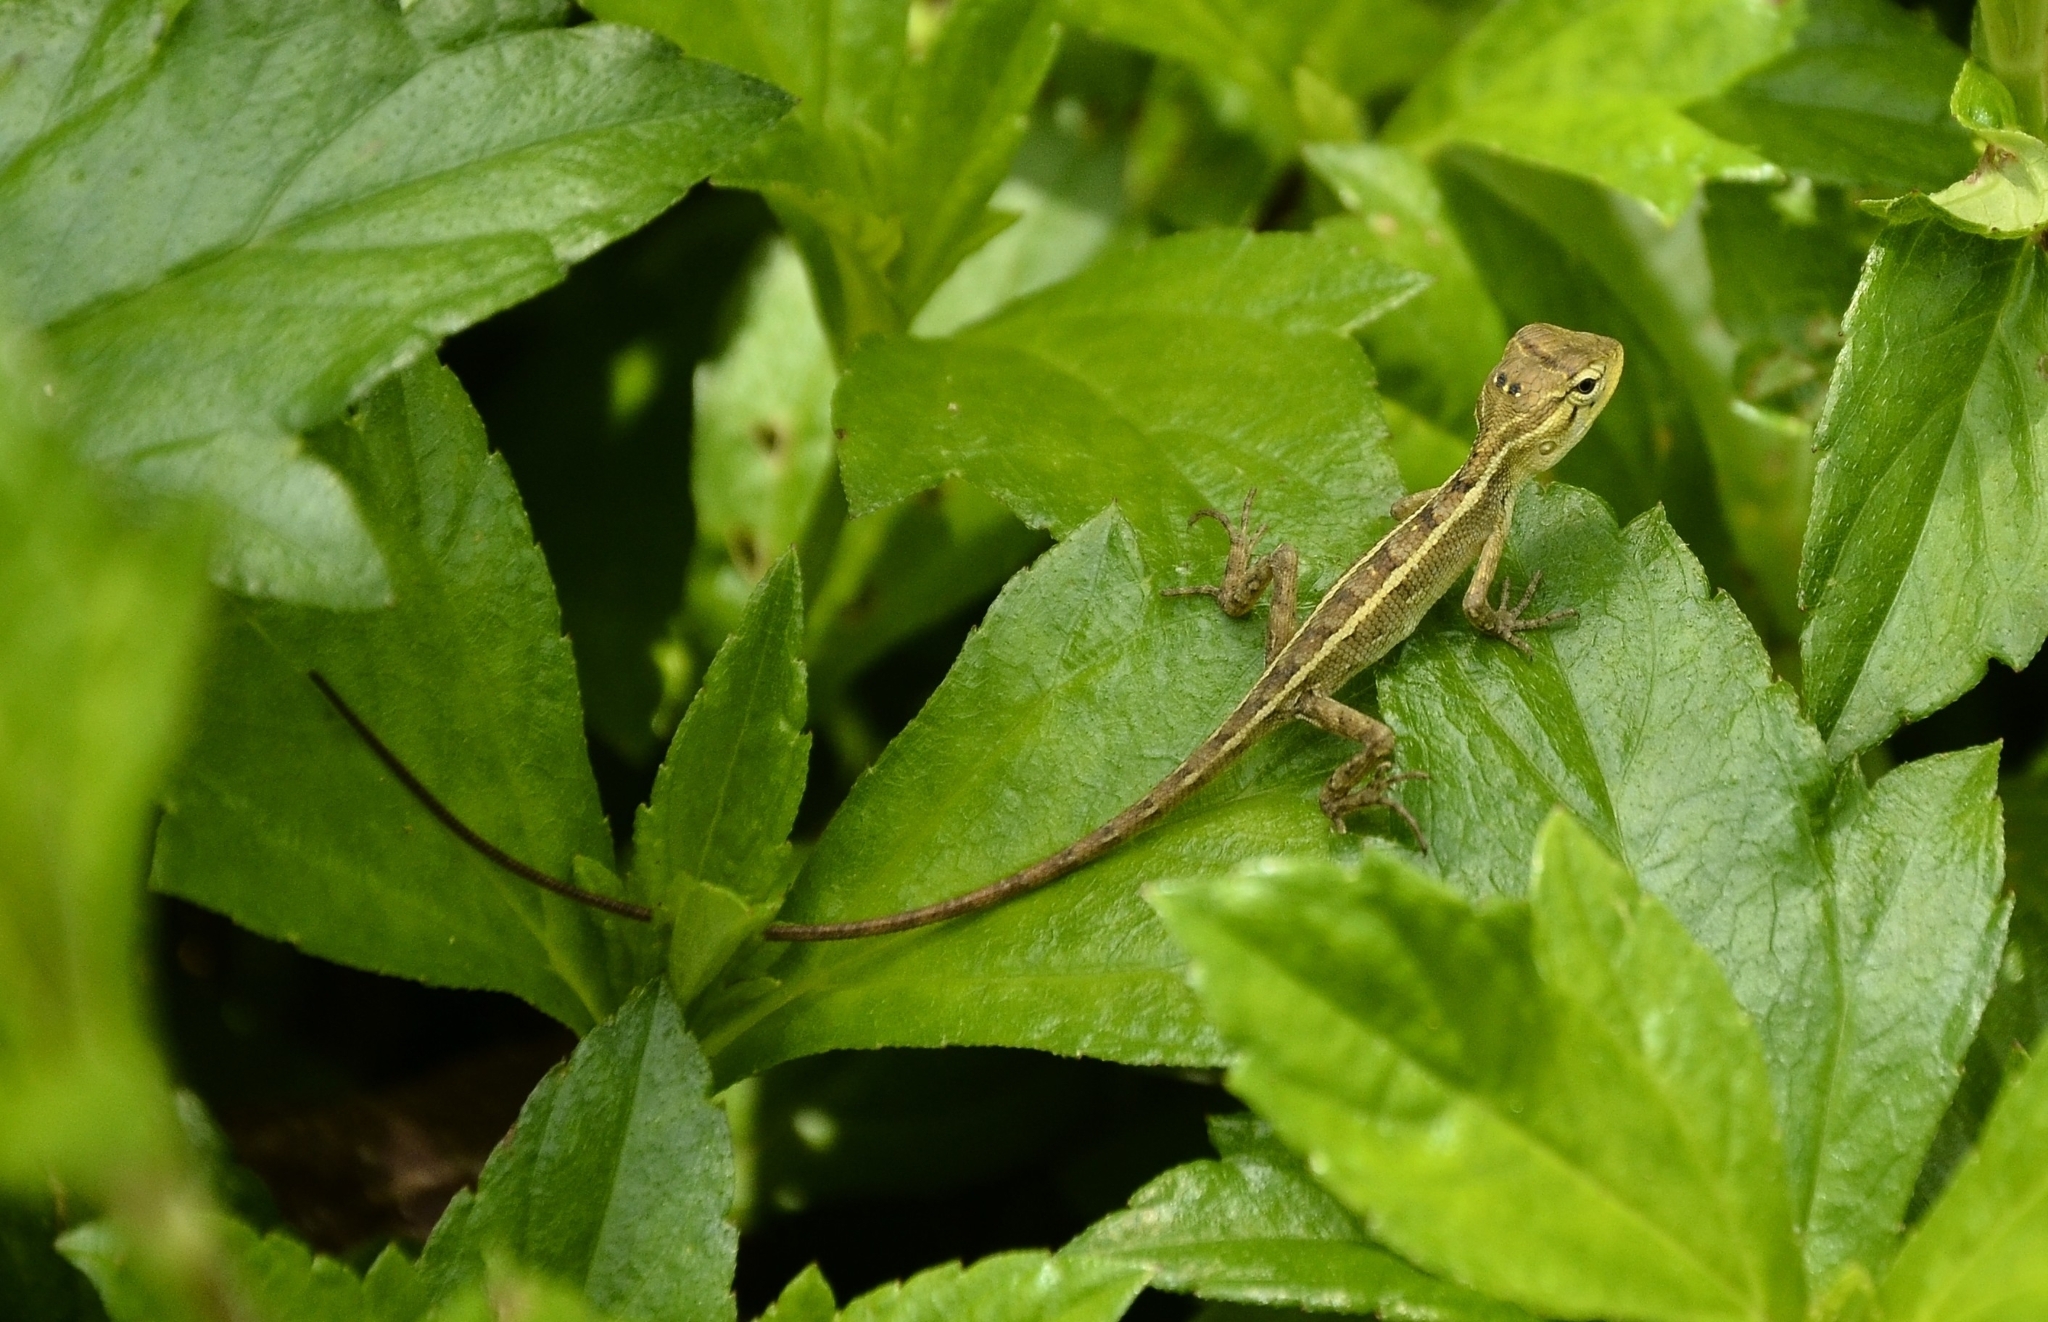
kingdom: Animalia
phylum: Chordata
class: Squamata
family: Agamidae
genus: Calotes
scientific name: Calotes versicolor
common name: Oriental garden lizard
